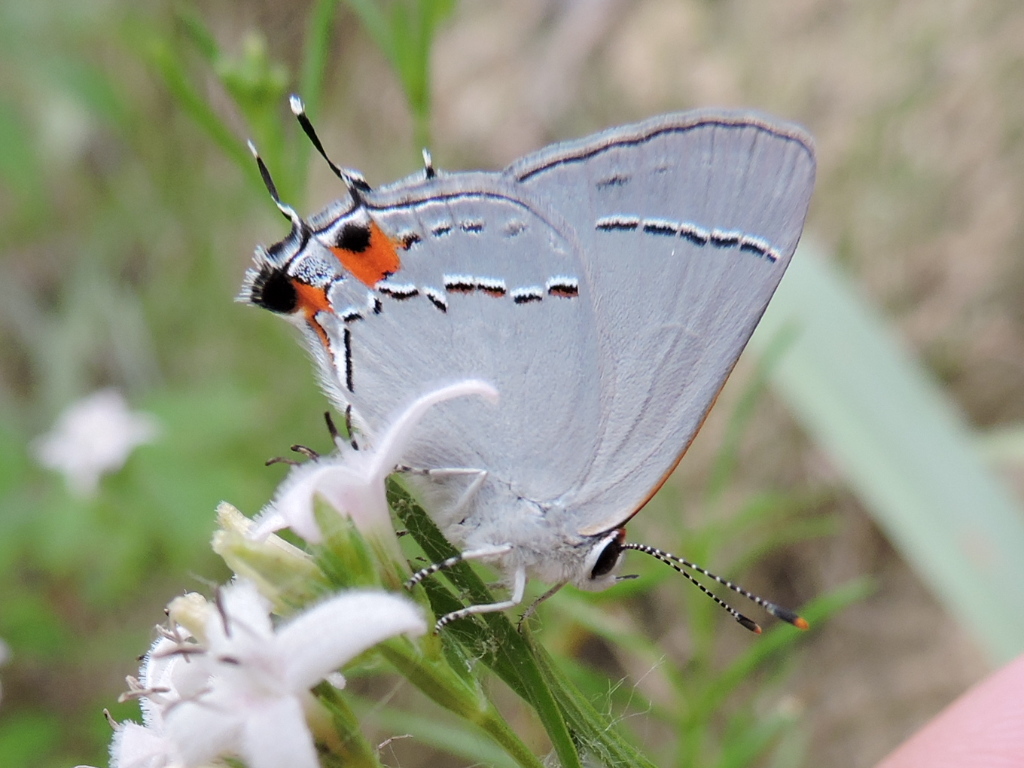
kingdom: Animalia
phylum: Arthropoda
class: Insecta
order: Lepidoptera
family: Lycaenidae
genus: Strymon
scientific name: Strymon melinus
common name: Gray hairstreak
